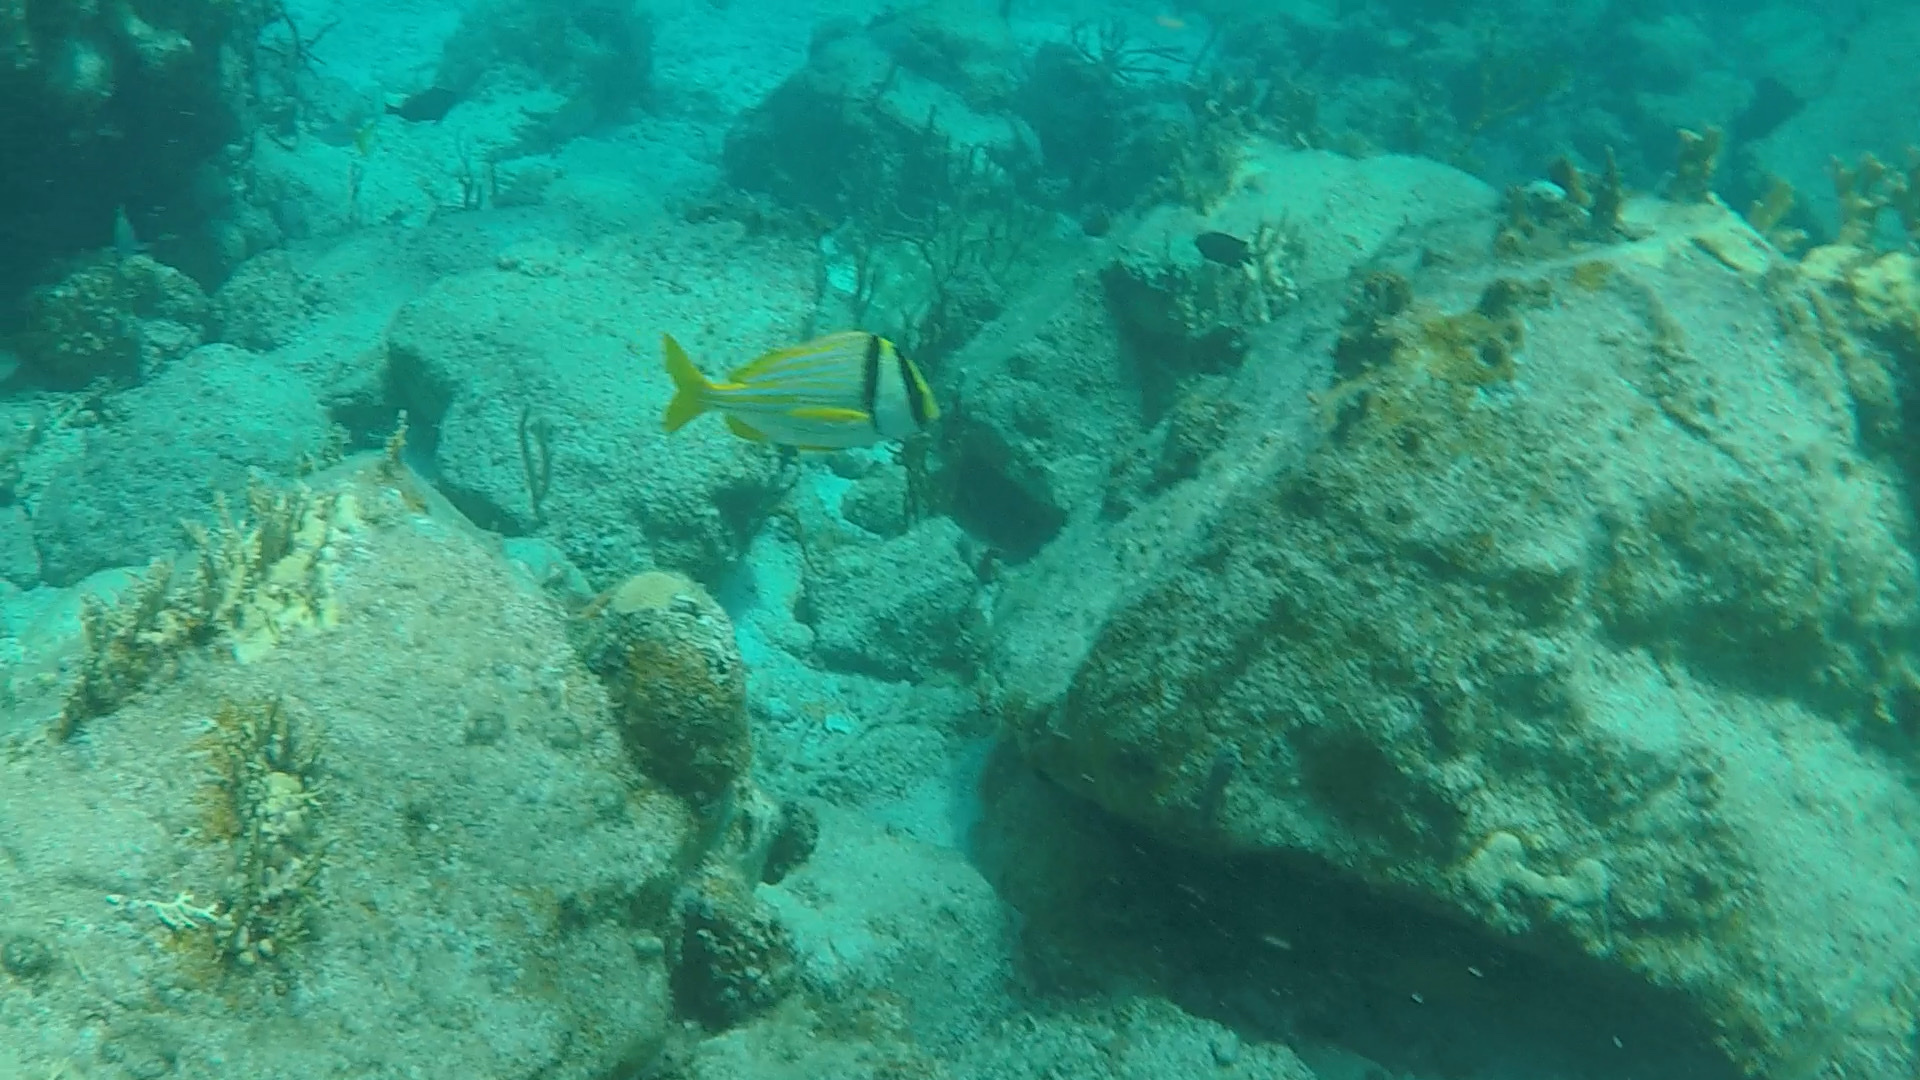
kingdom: Animalia
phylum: Chordata
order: Perciformes
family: Haemulidae
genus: Anisotremus
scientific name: Anisotremus virginicus
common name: Porkfish
